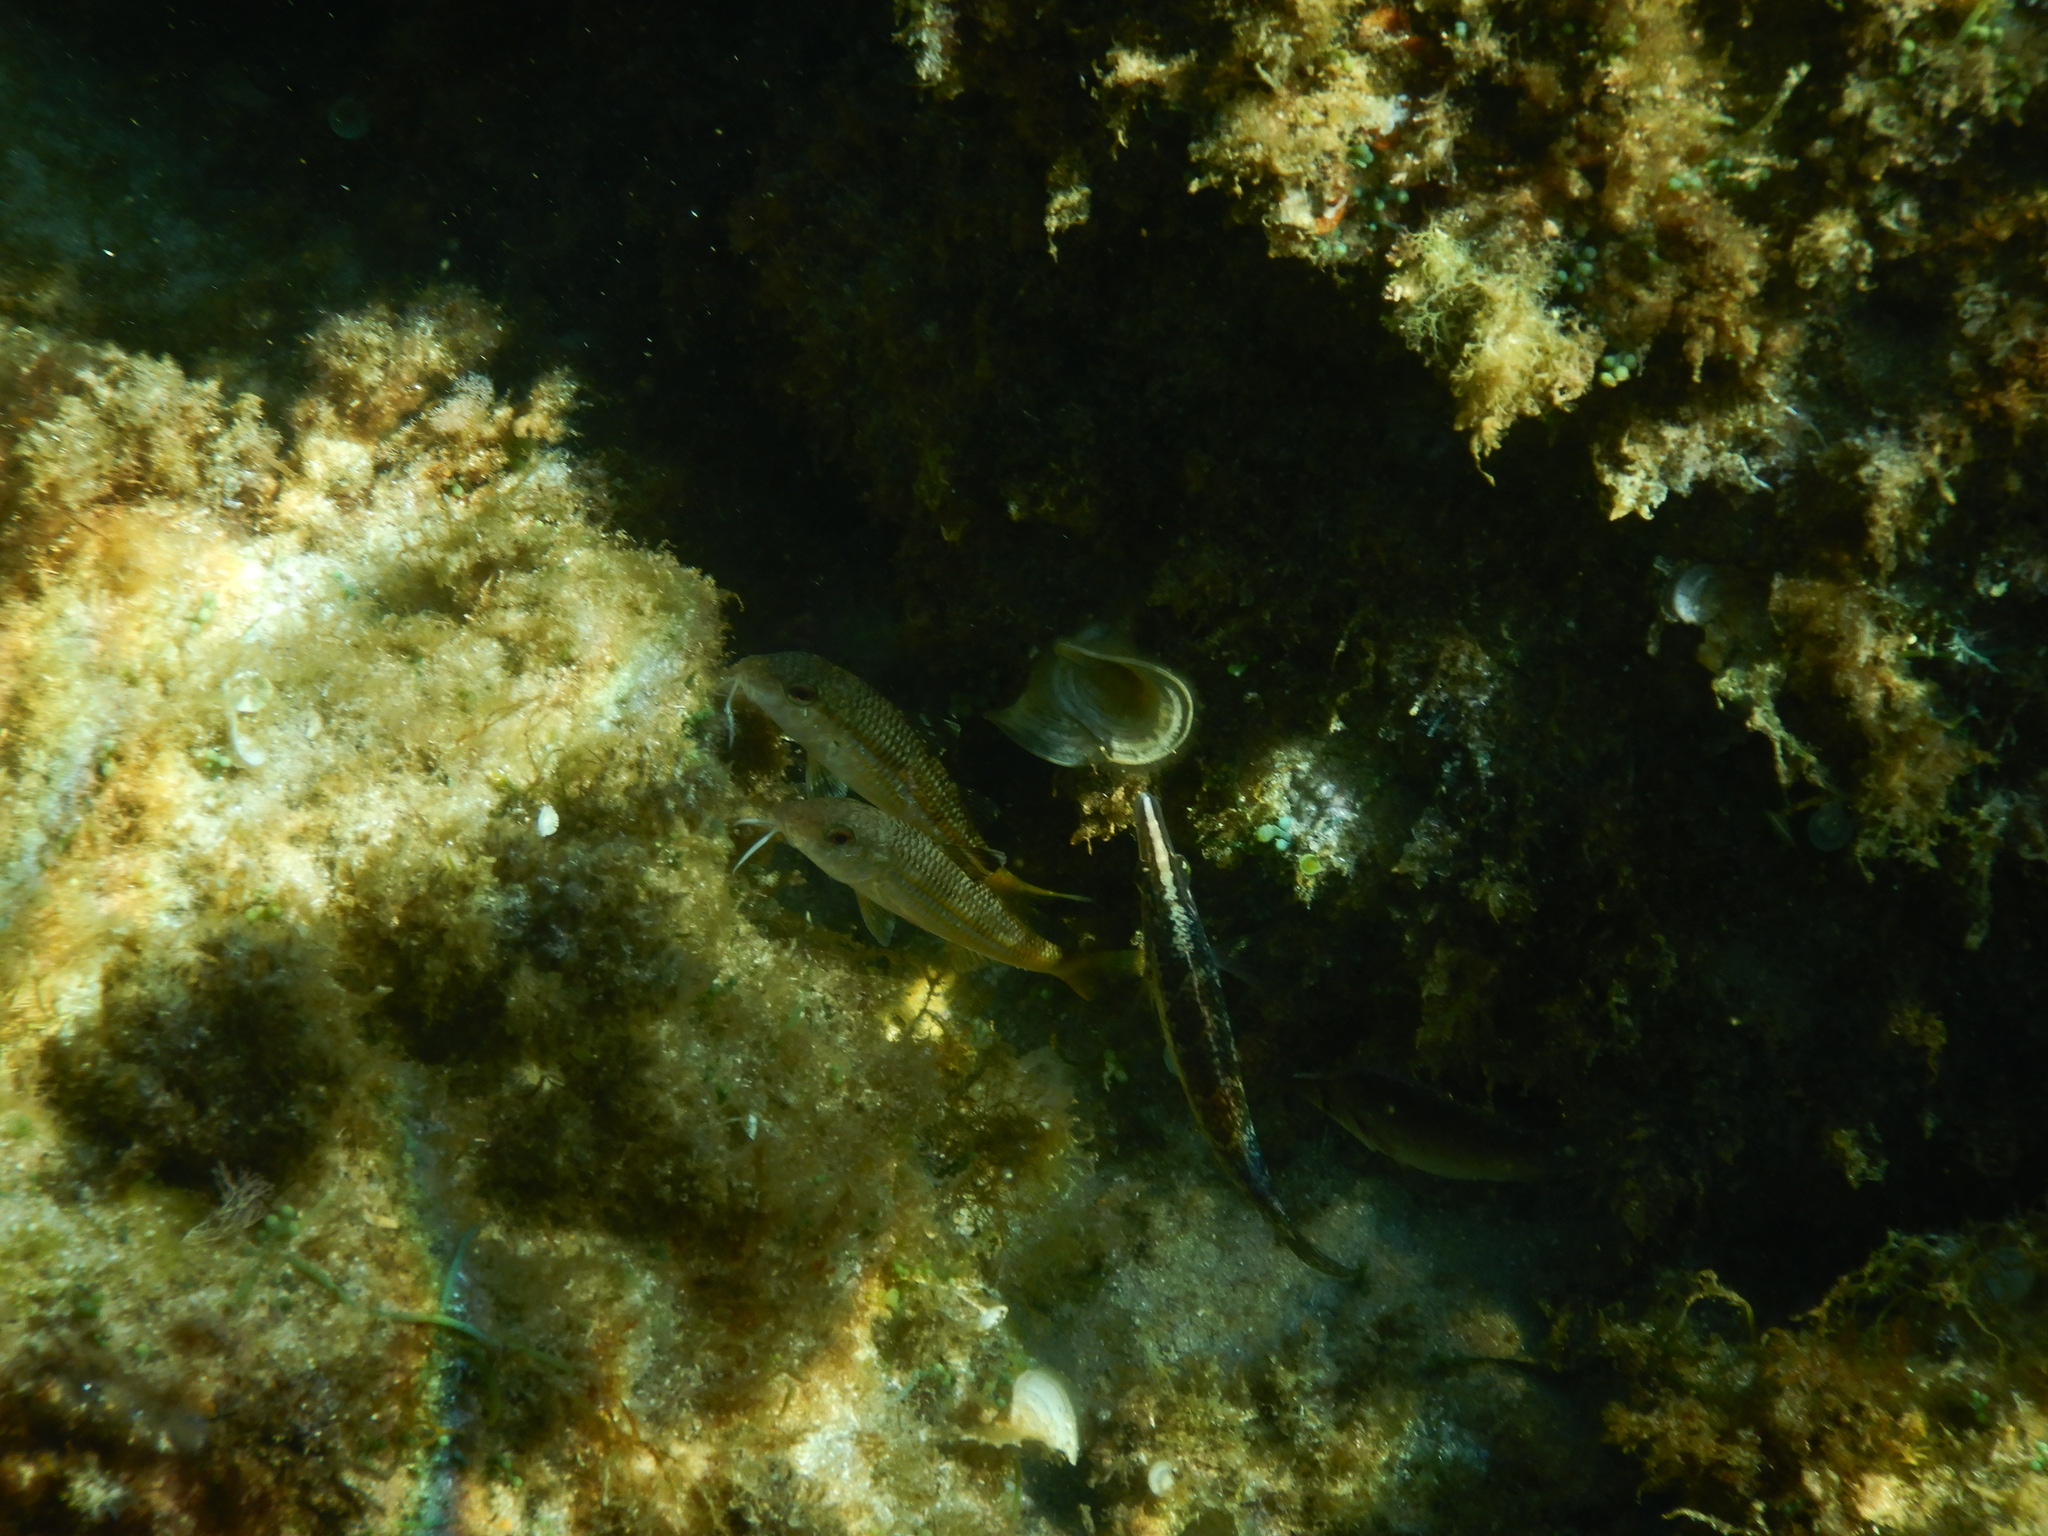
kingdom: Animalia
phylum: Chordata
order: Perciformes
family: Labridae
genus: Symphodus
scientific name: Symphodus rostratus
